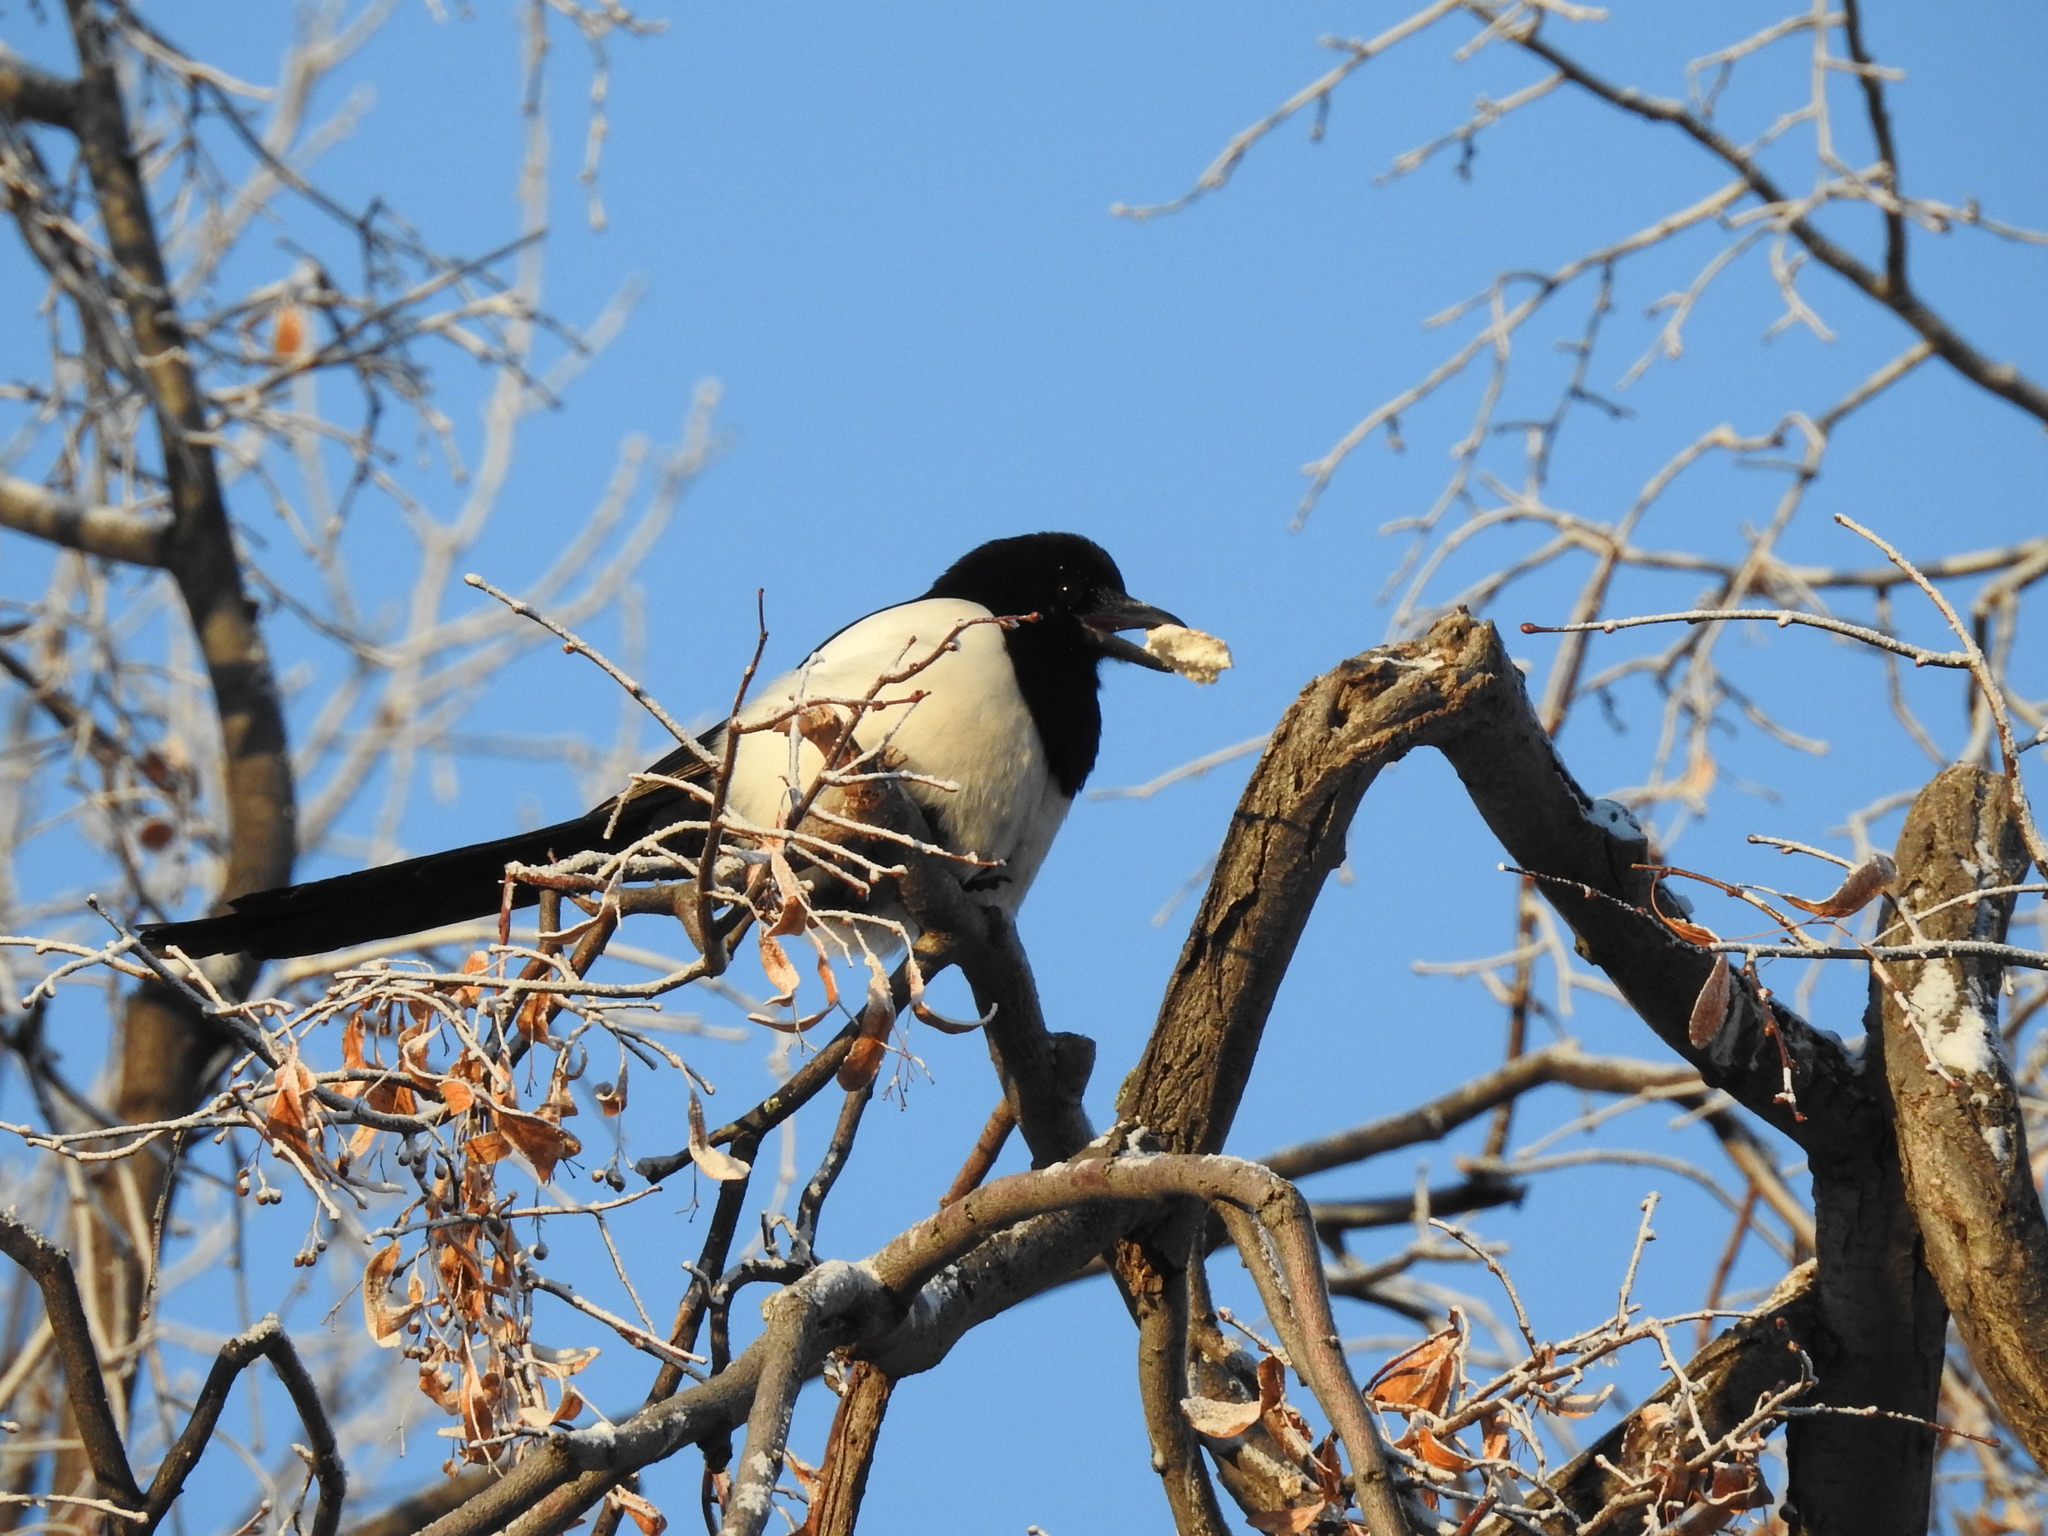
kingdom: Animalia
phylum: Chordata
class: Aves
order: Passeriformes
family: Corvidae
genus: Pica
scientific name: Pica pica
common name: Eurasian magpie
